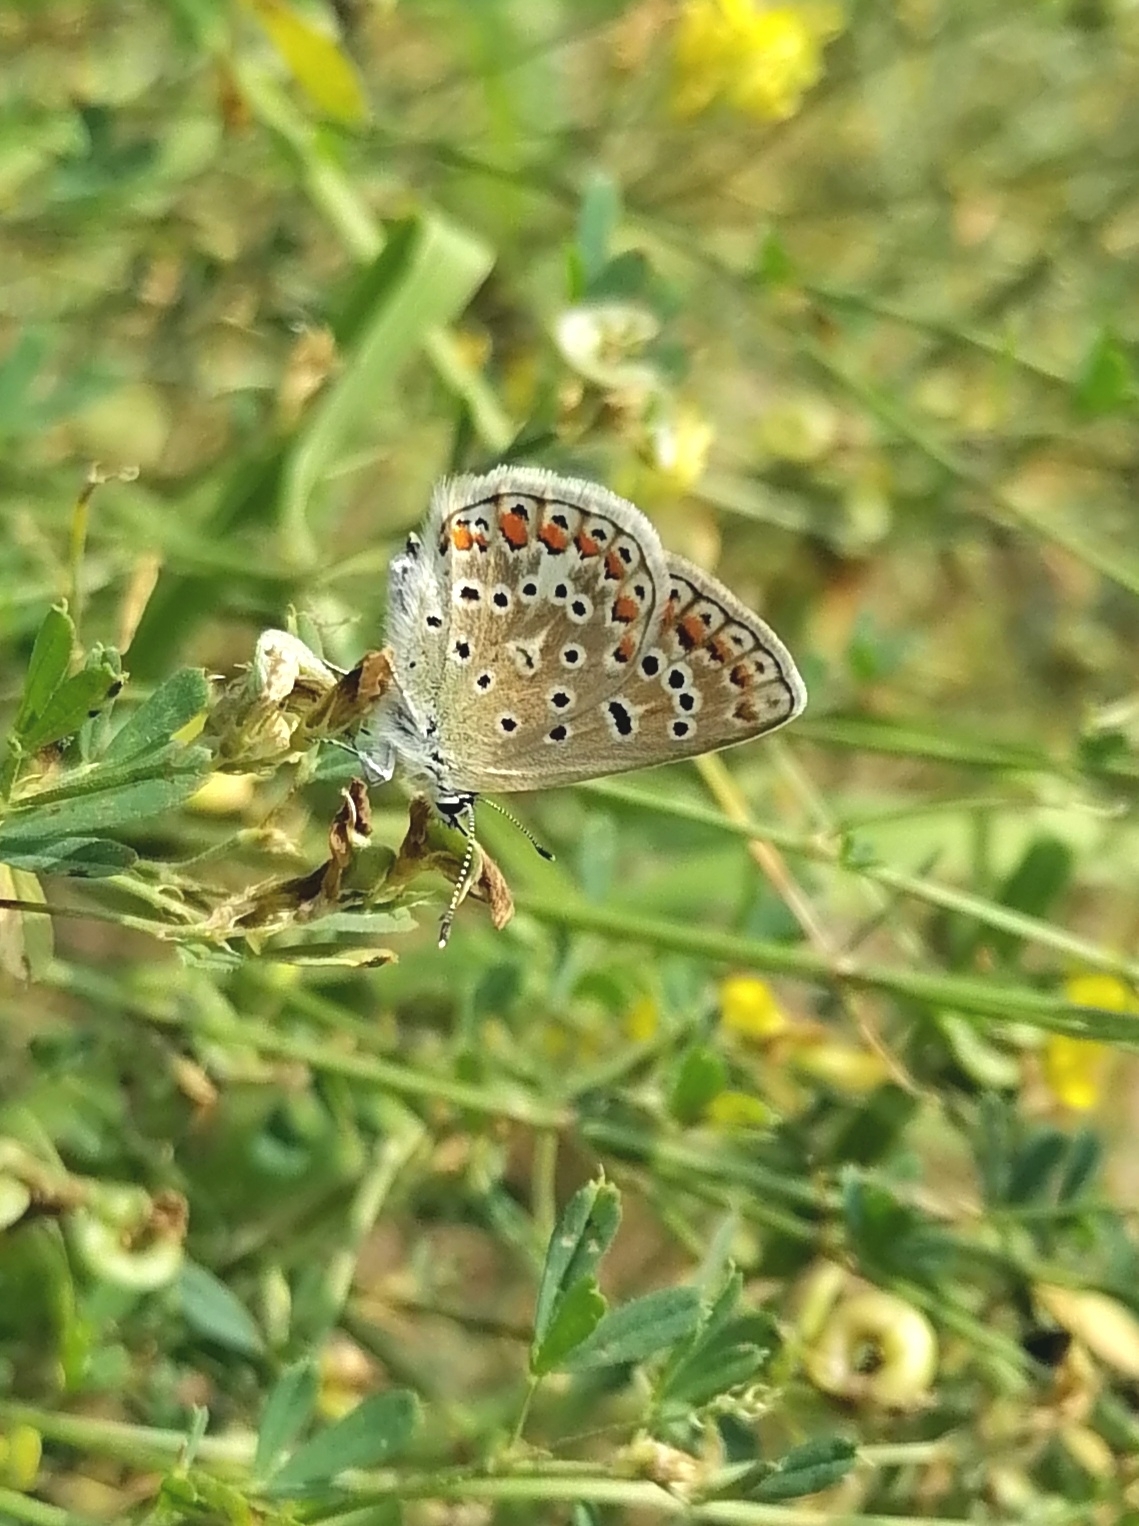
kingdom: Animalia
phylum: Arthropoda
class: Insecta
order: Lepidoptera
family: Lycaenidae
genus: Polyommatus
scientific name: Polyommatus icarus
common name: Common blue
